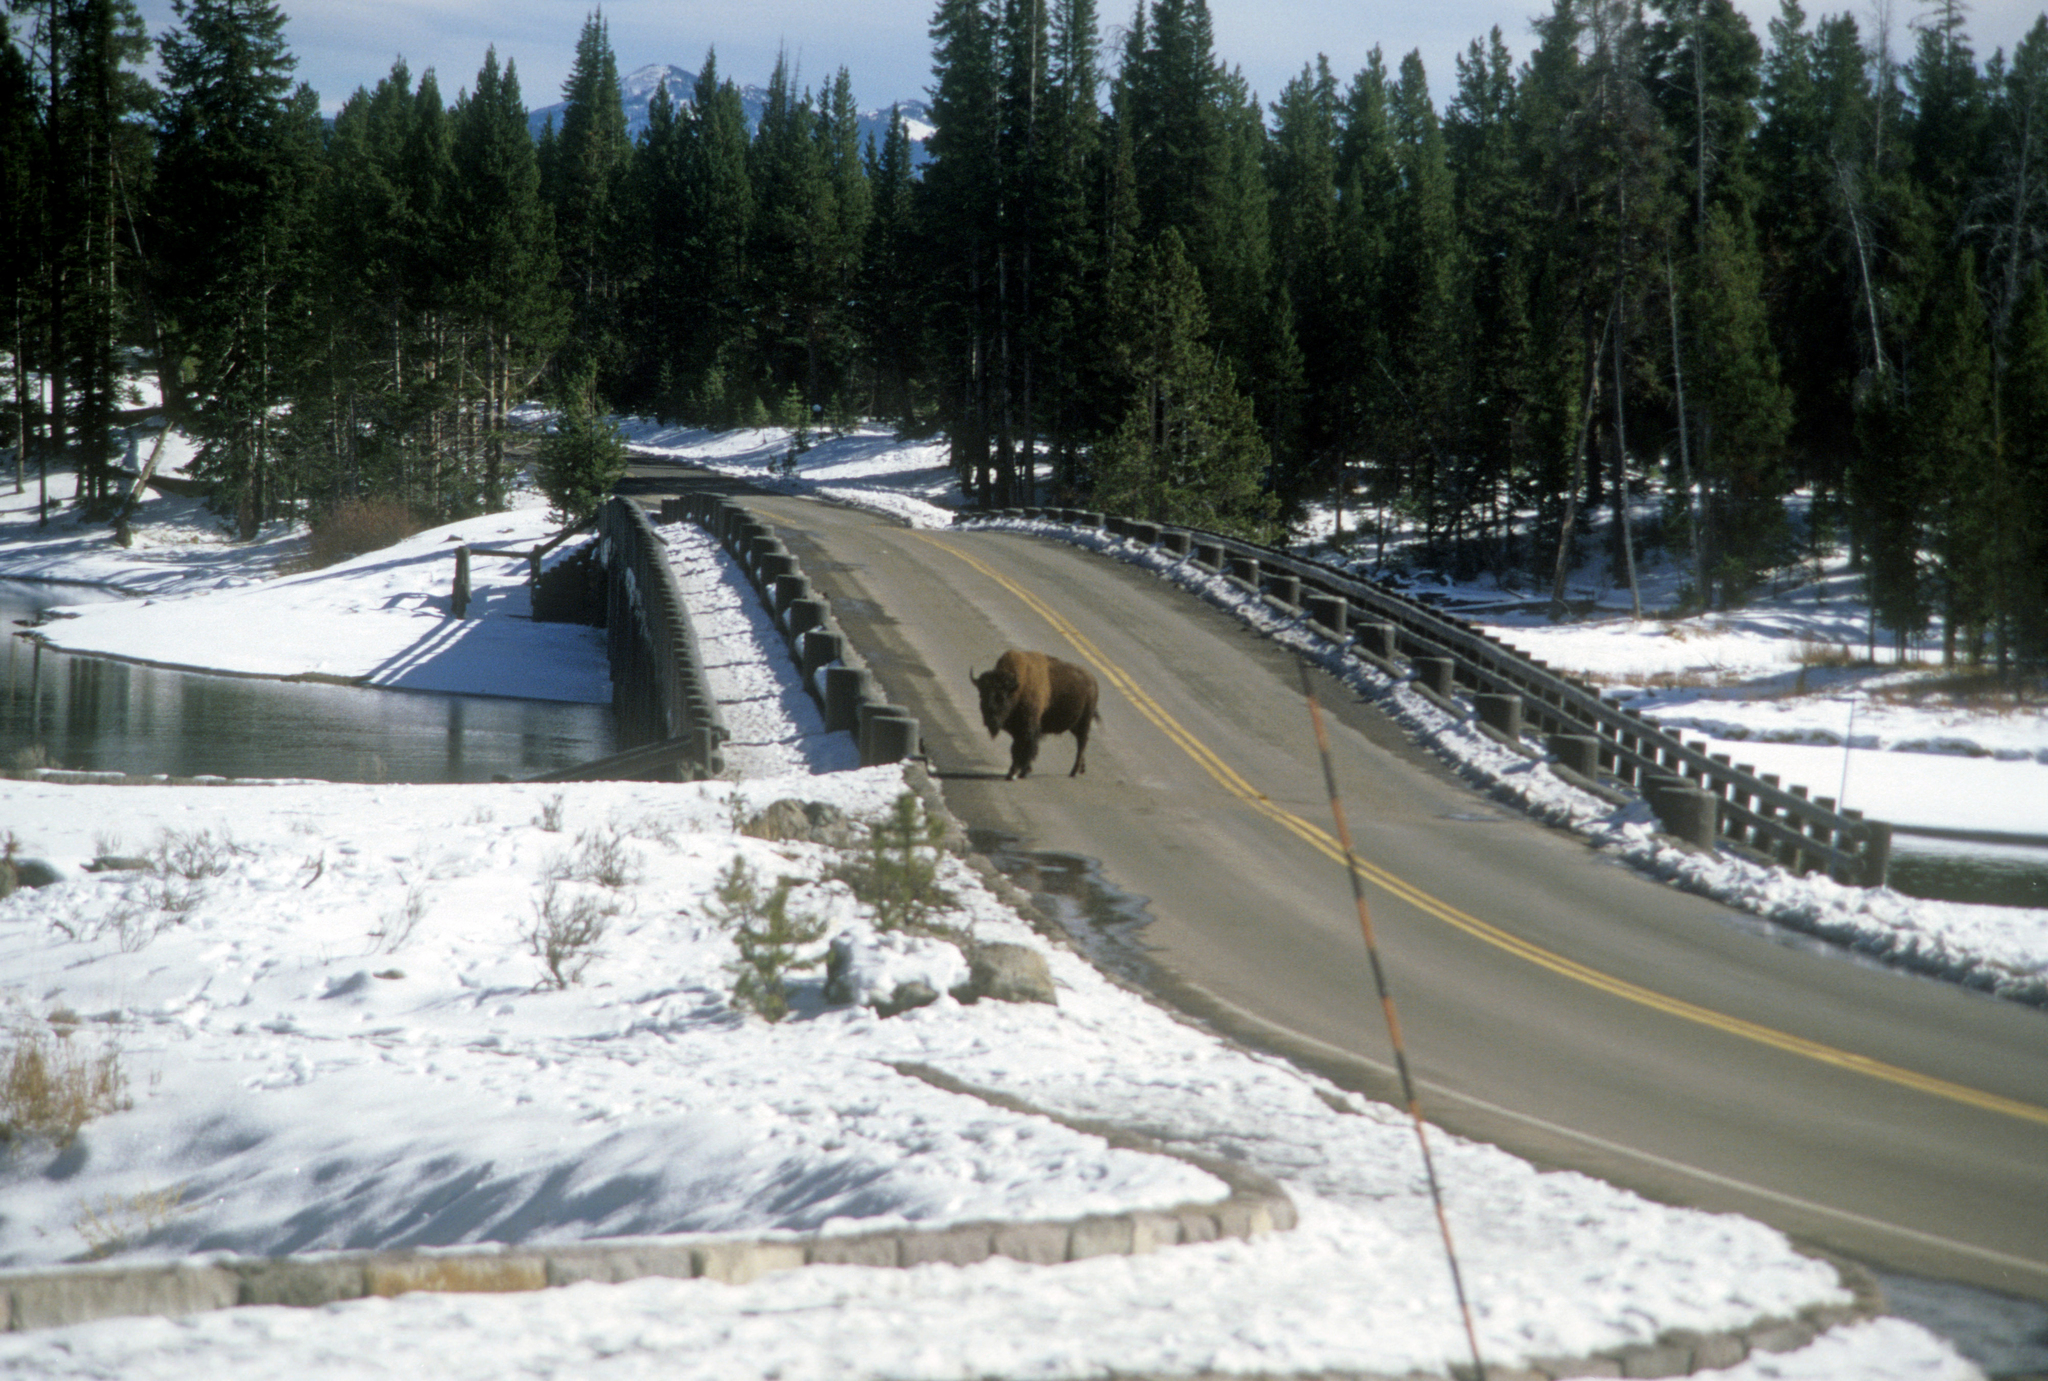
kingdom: Animalia
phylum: Chordata
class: Mammalia
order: Artiodactyla
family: Bovidae
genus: Bison
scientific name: Bison bison
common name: American bison
